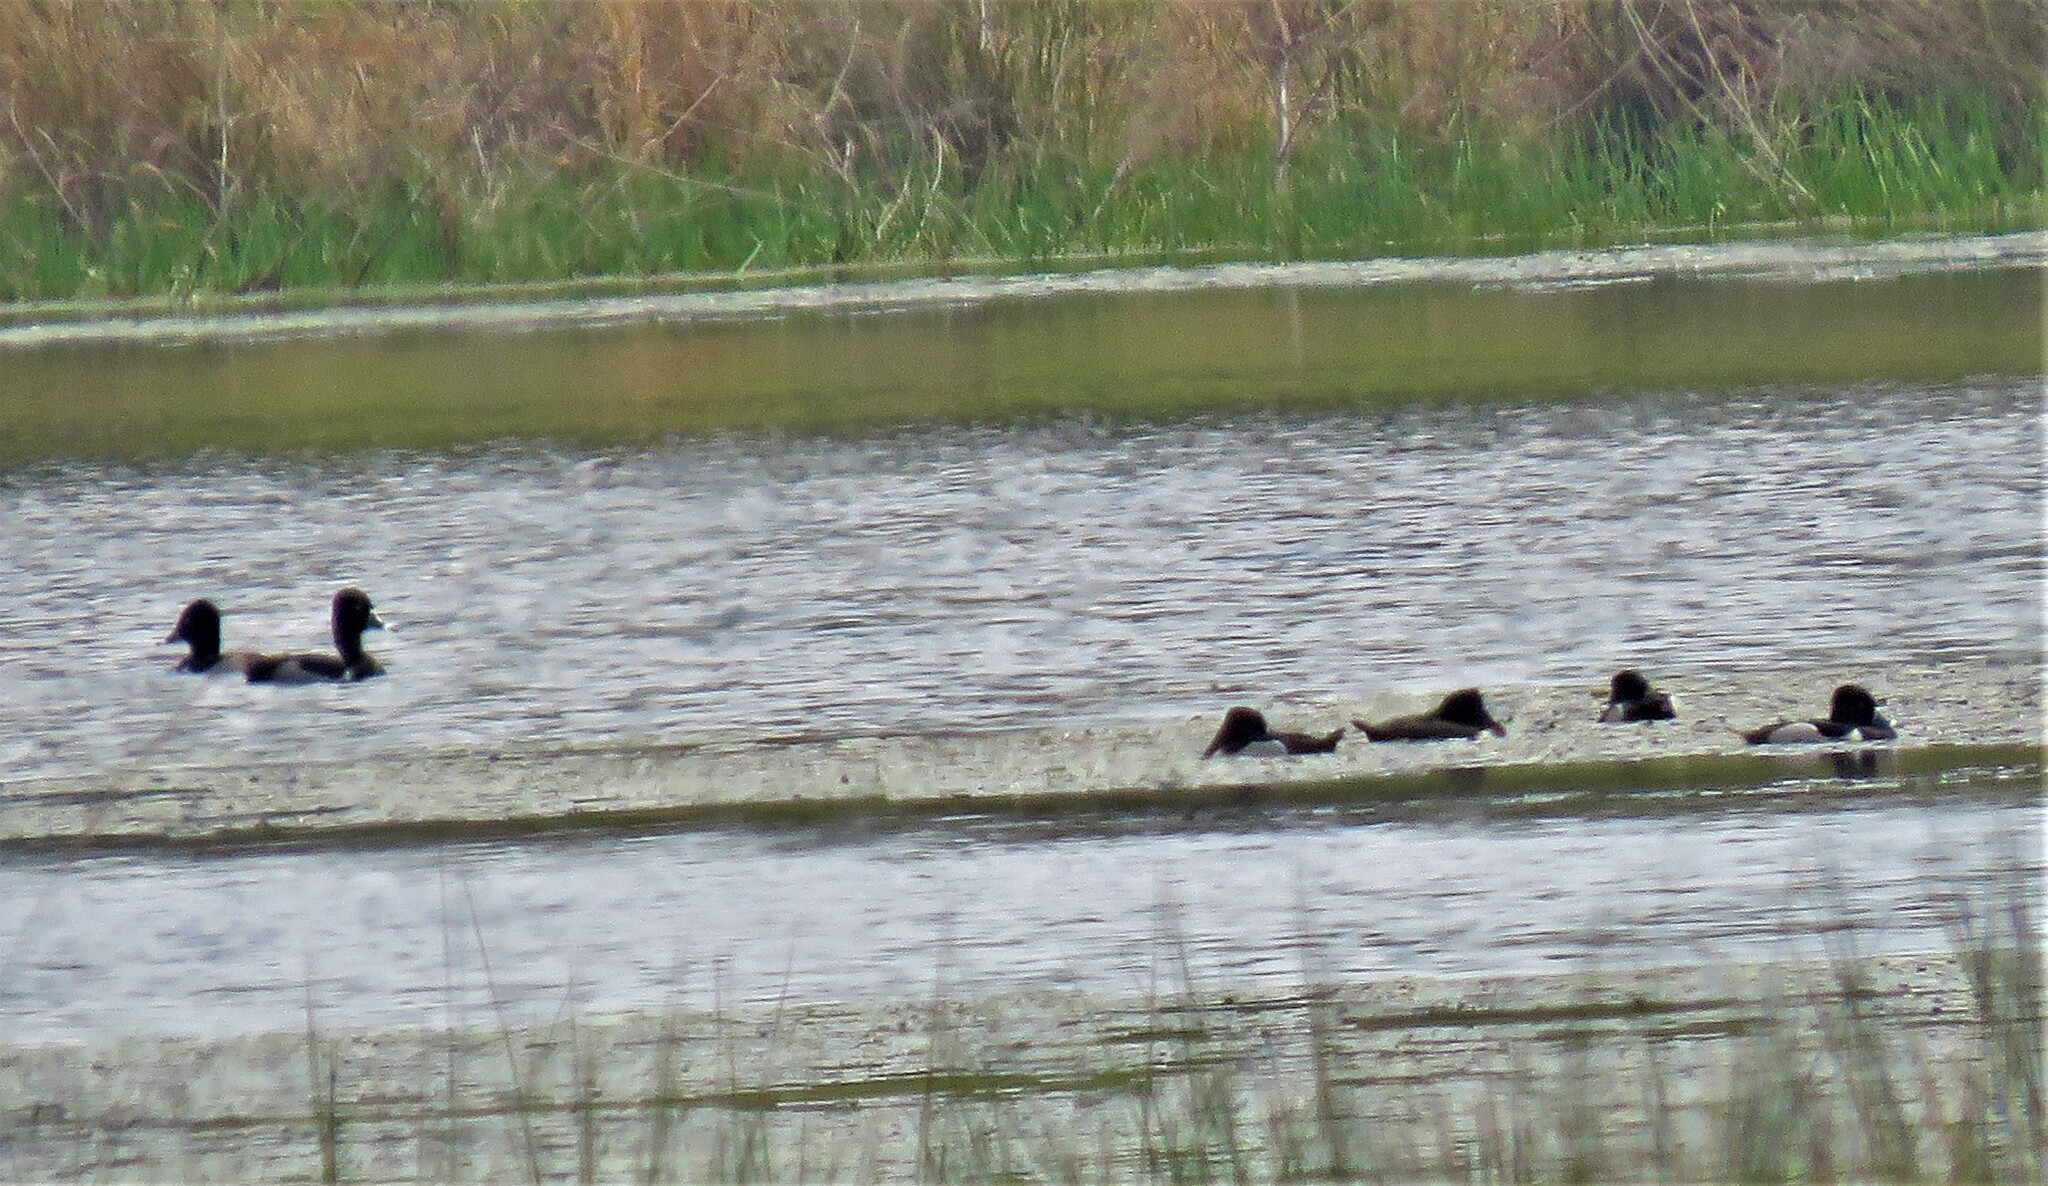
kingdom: Animalia
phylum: Chordata
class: Aves
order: Anseriformes
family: Anatidae
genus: Aythya
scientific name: Aythya collaris
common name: Ring-necked duck
